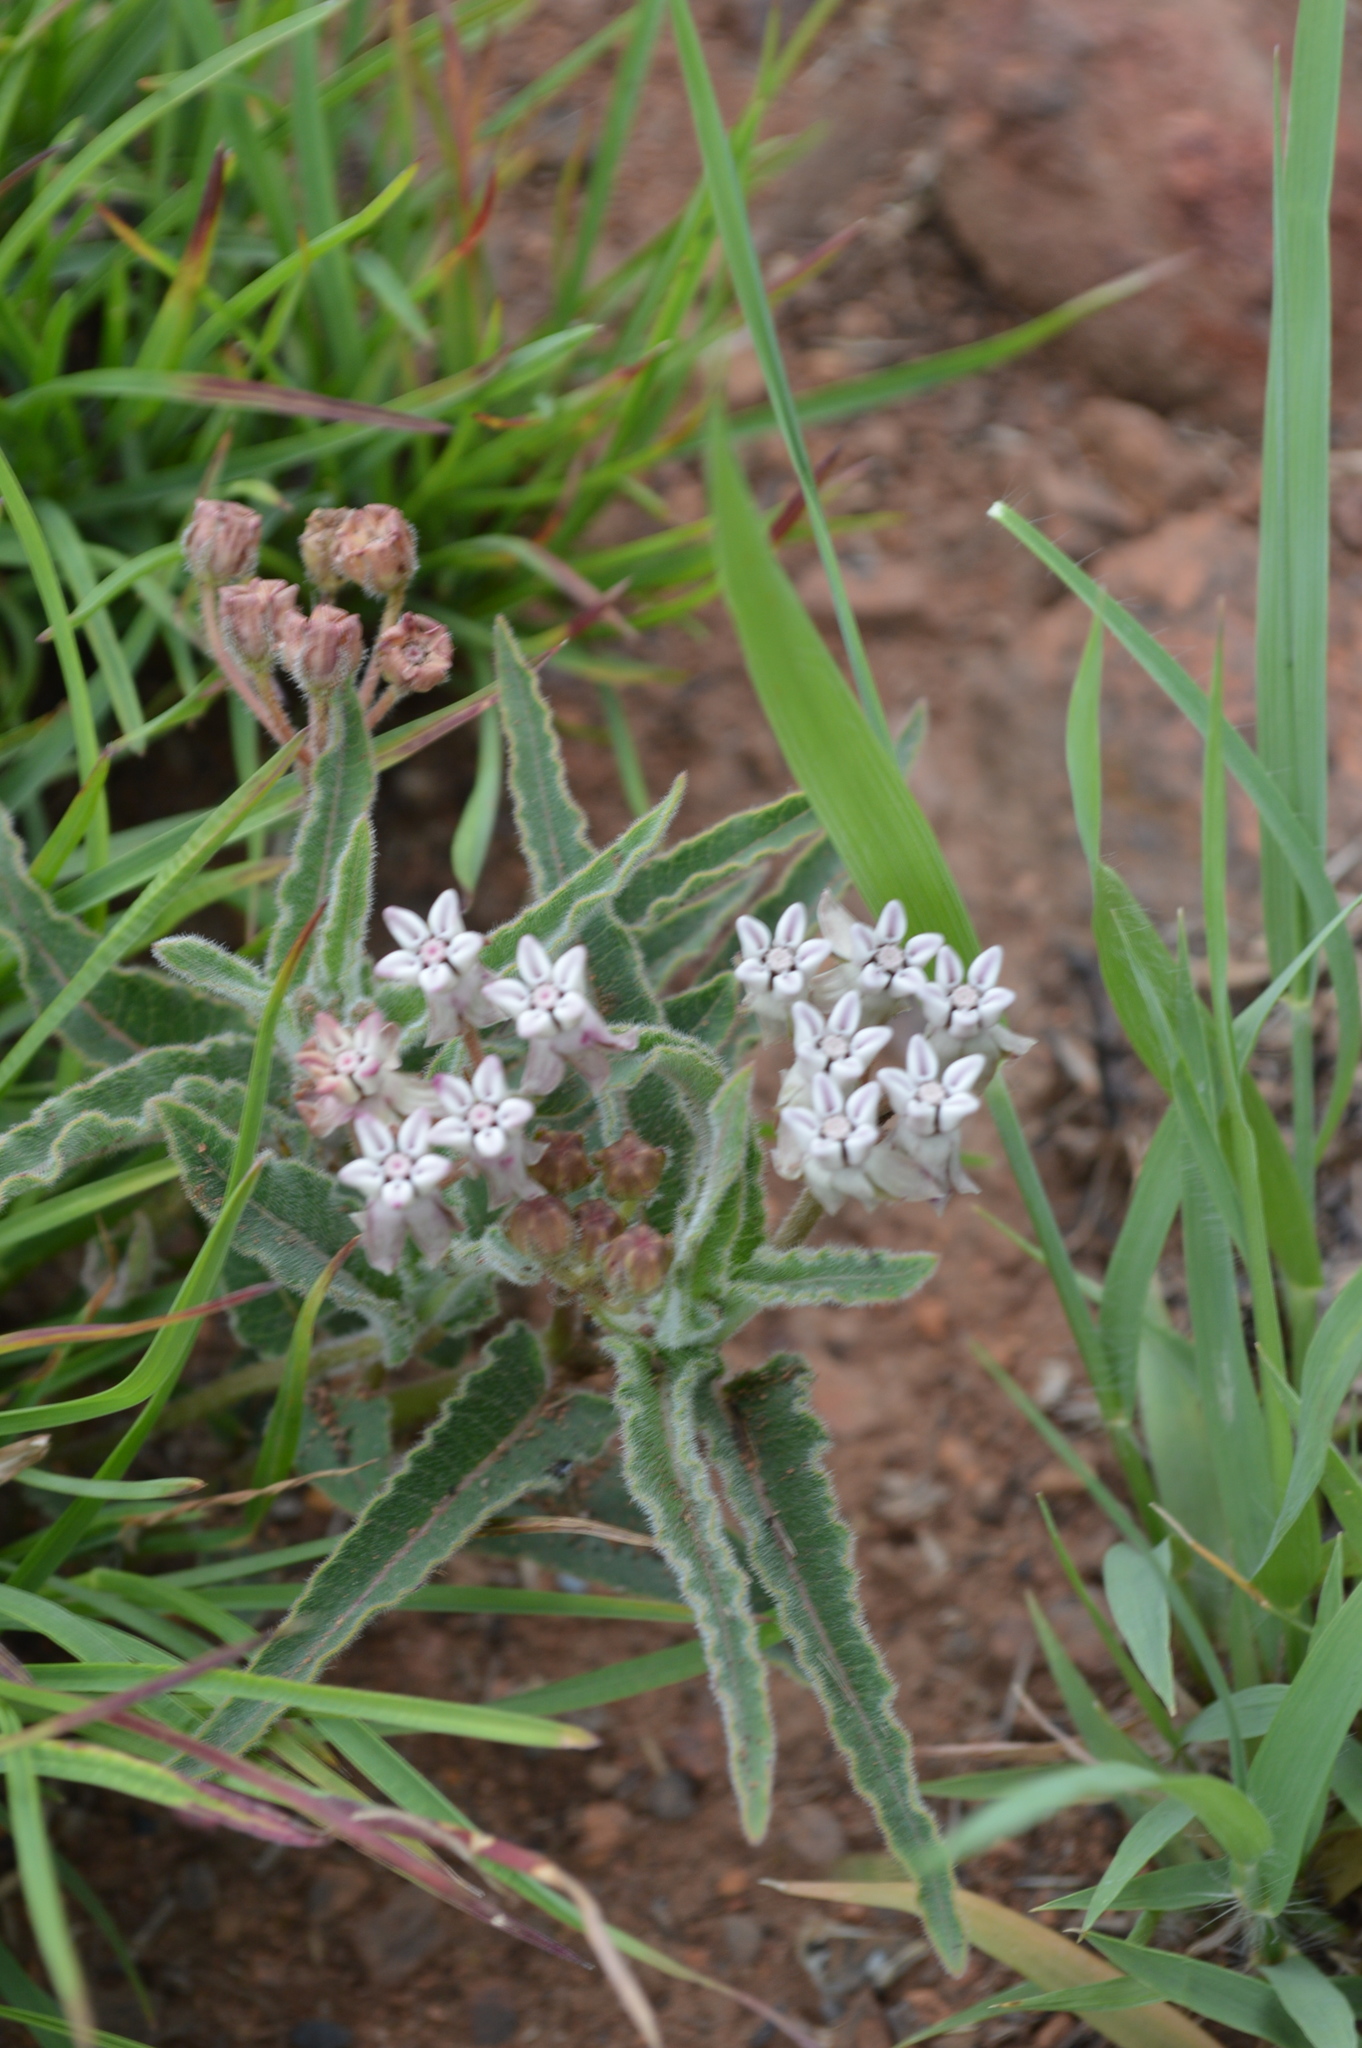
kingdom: Plantae
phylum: Tracheophyta
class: Magnoliopsida
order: Gentianales
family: Apocynaceae
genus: Asclepias
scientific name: Asclepias meliodora
